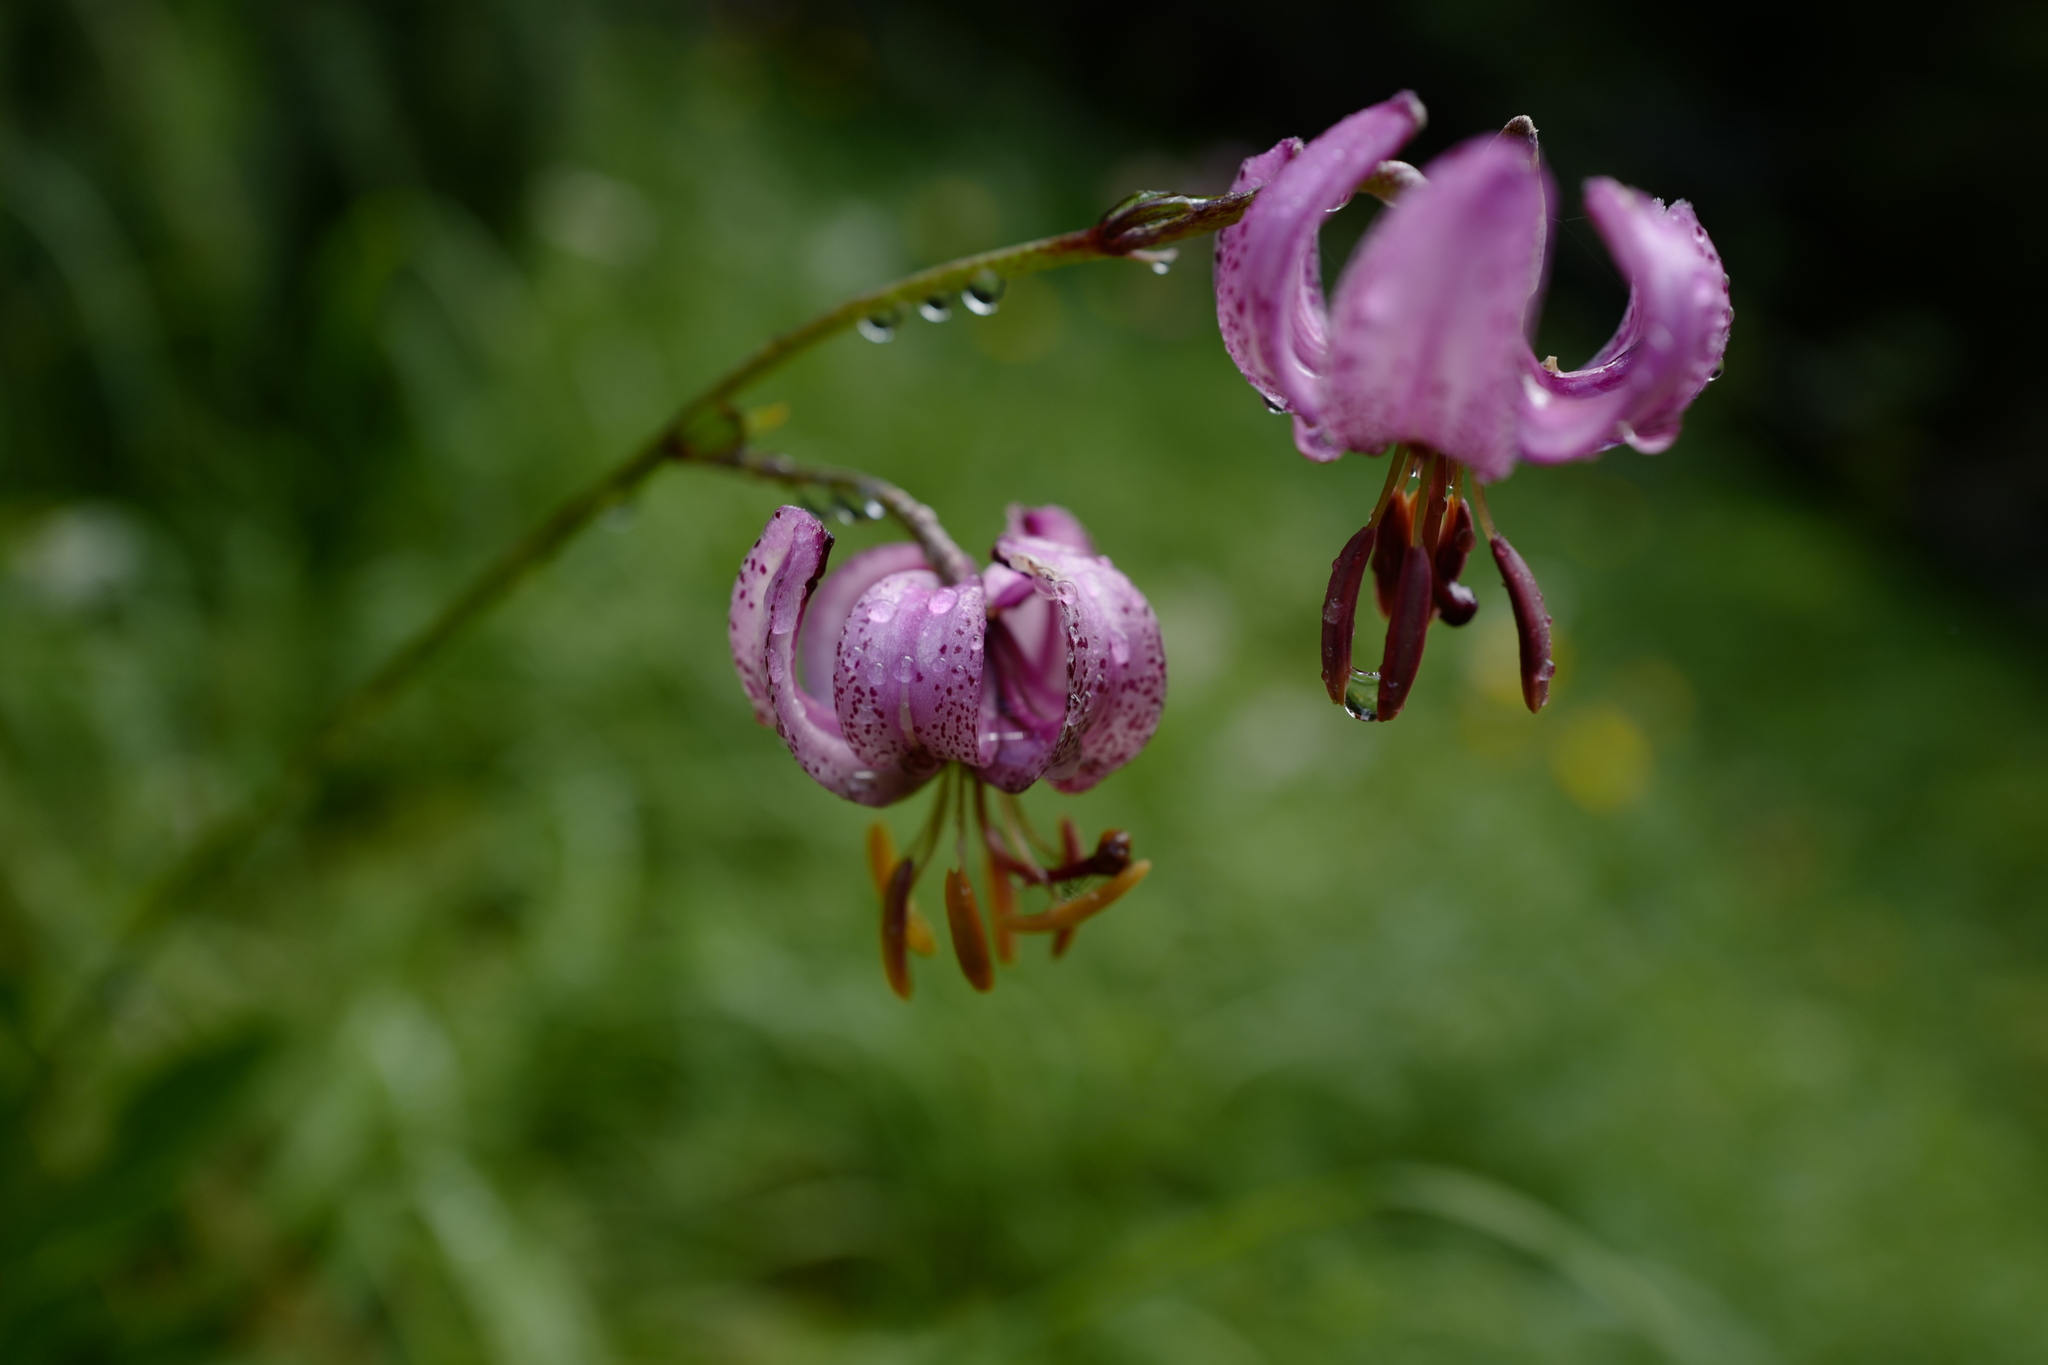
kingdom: Plantae
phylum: Tracheophyta
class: Liliopsida
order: Liliales
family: Liliaceae
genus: Lilium
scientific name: Lilium martagon
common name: Martagon lily
